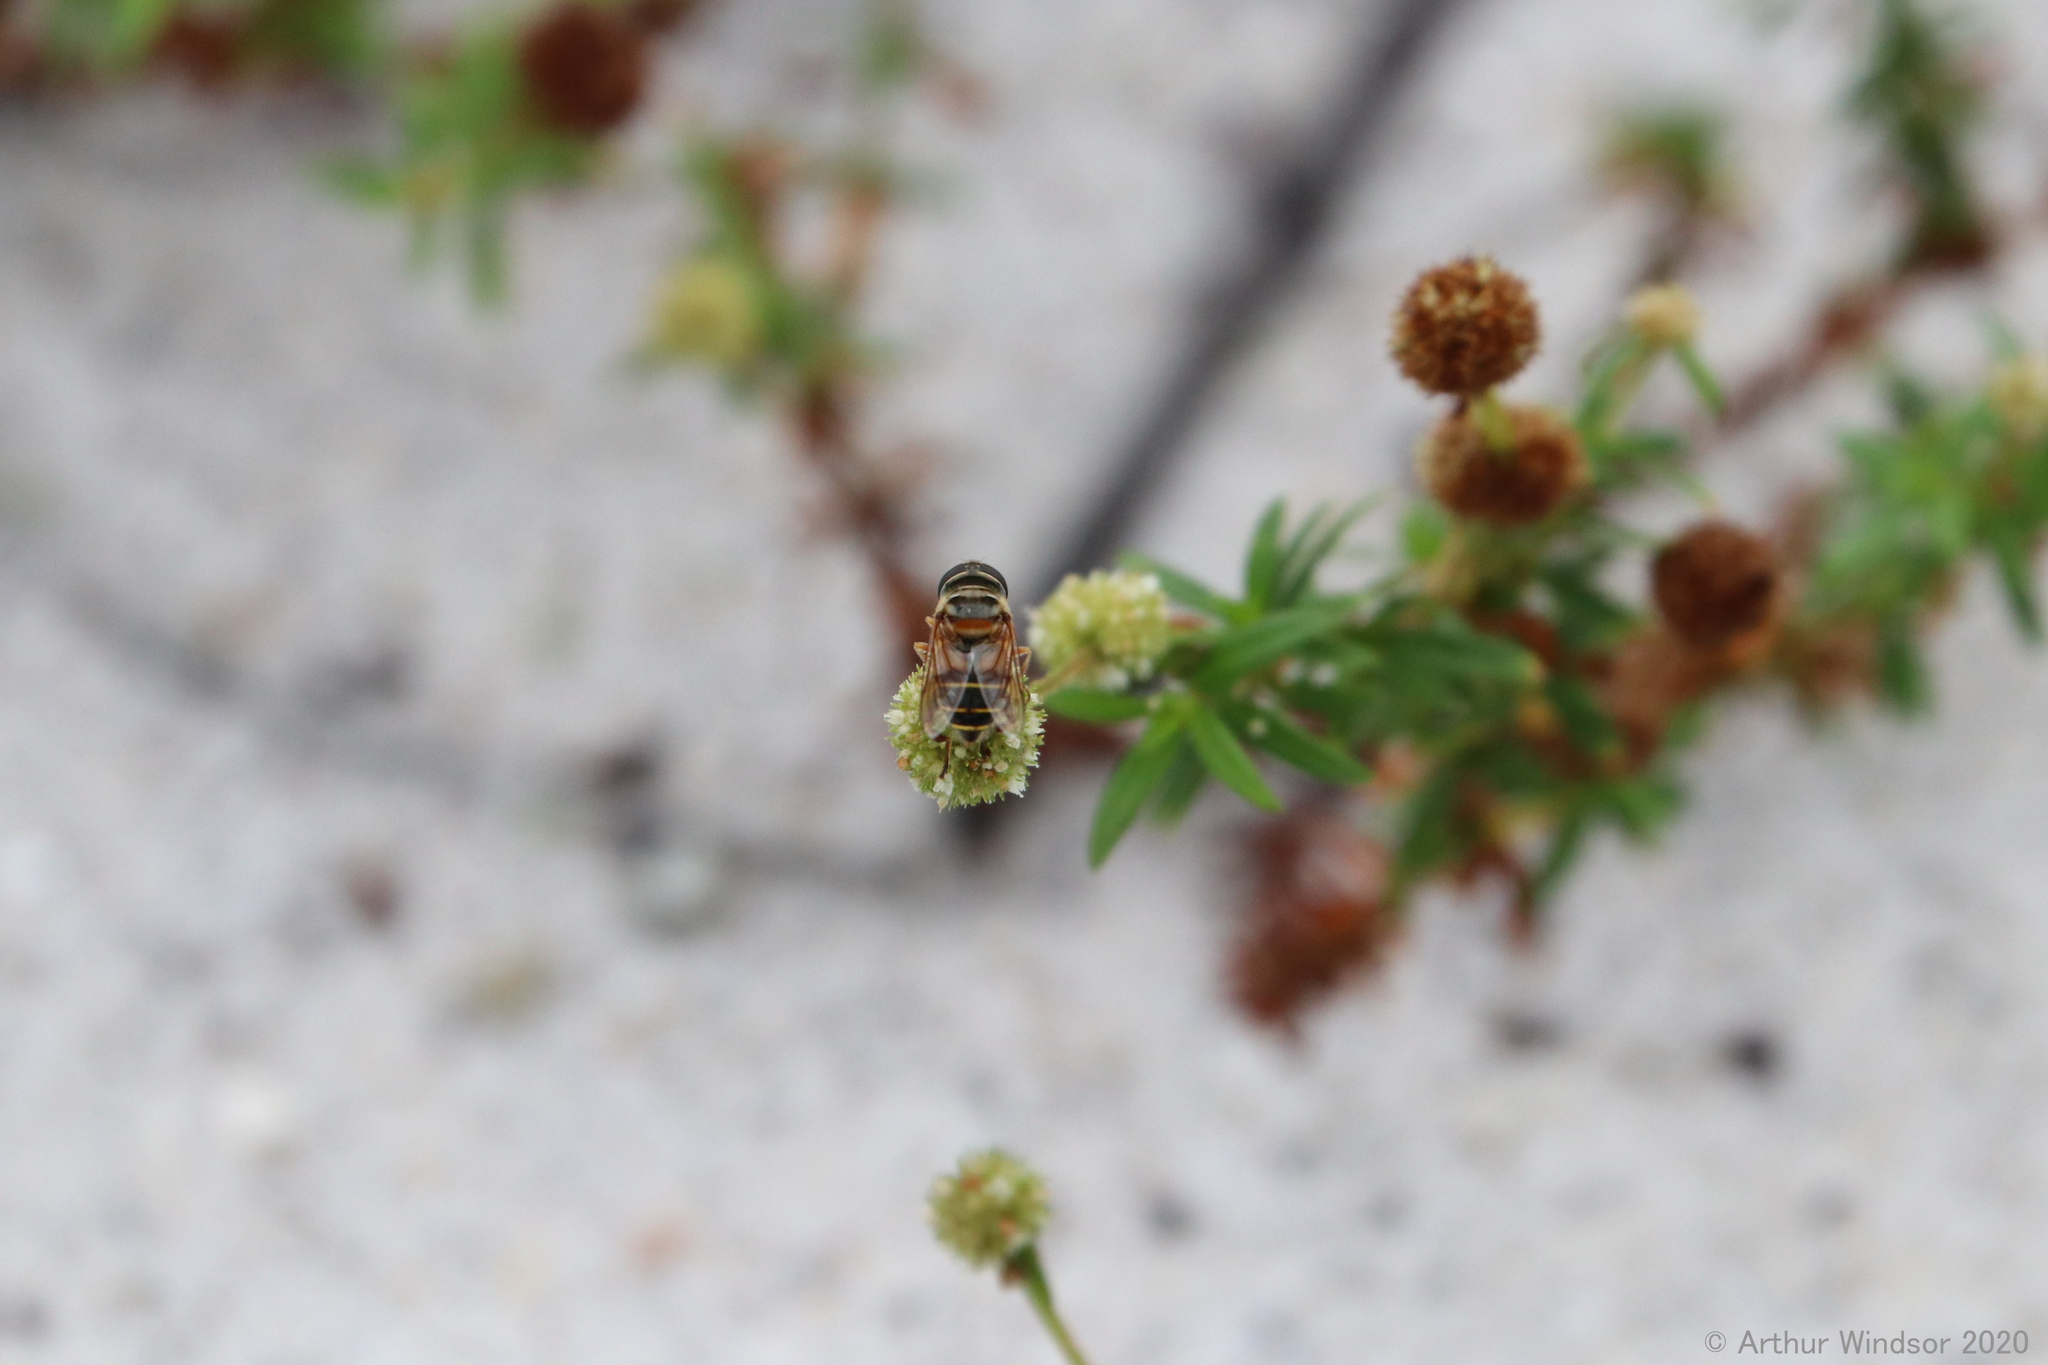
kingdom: Animalia
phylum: Arthropoda
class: Insecta
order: Diptera
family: Syrphidae
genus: Palpada
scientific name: Palpada vinetorum
